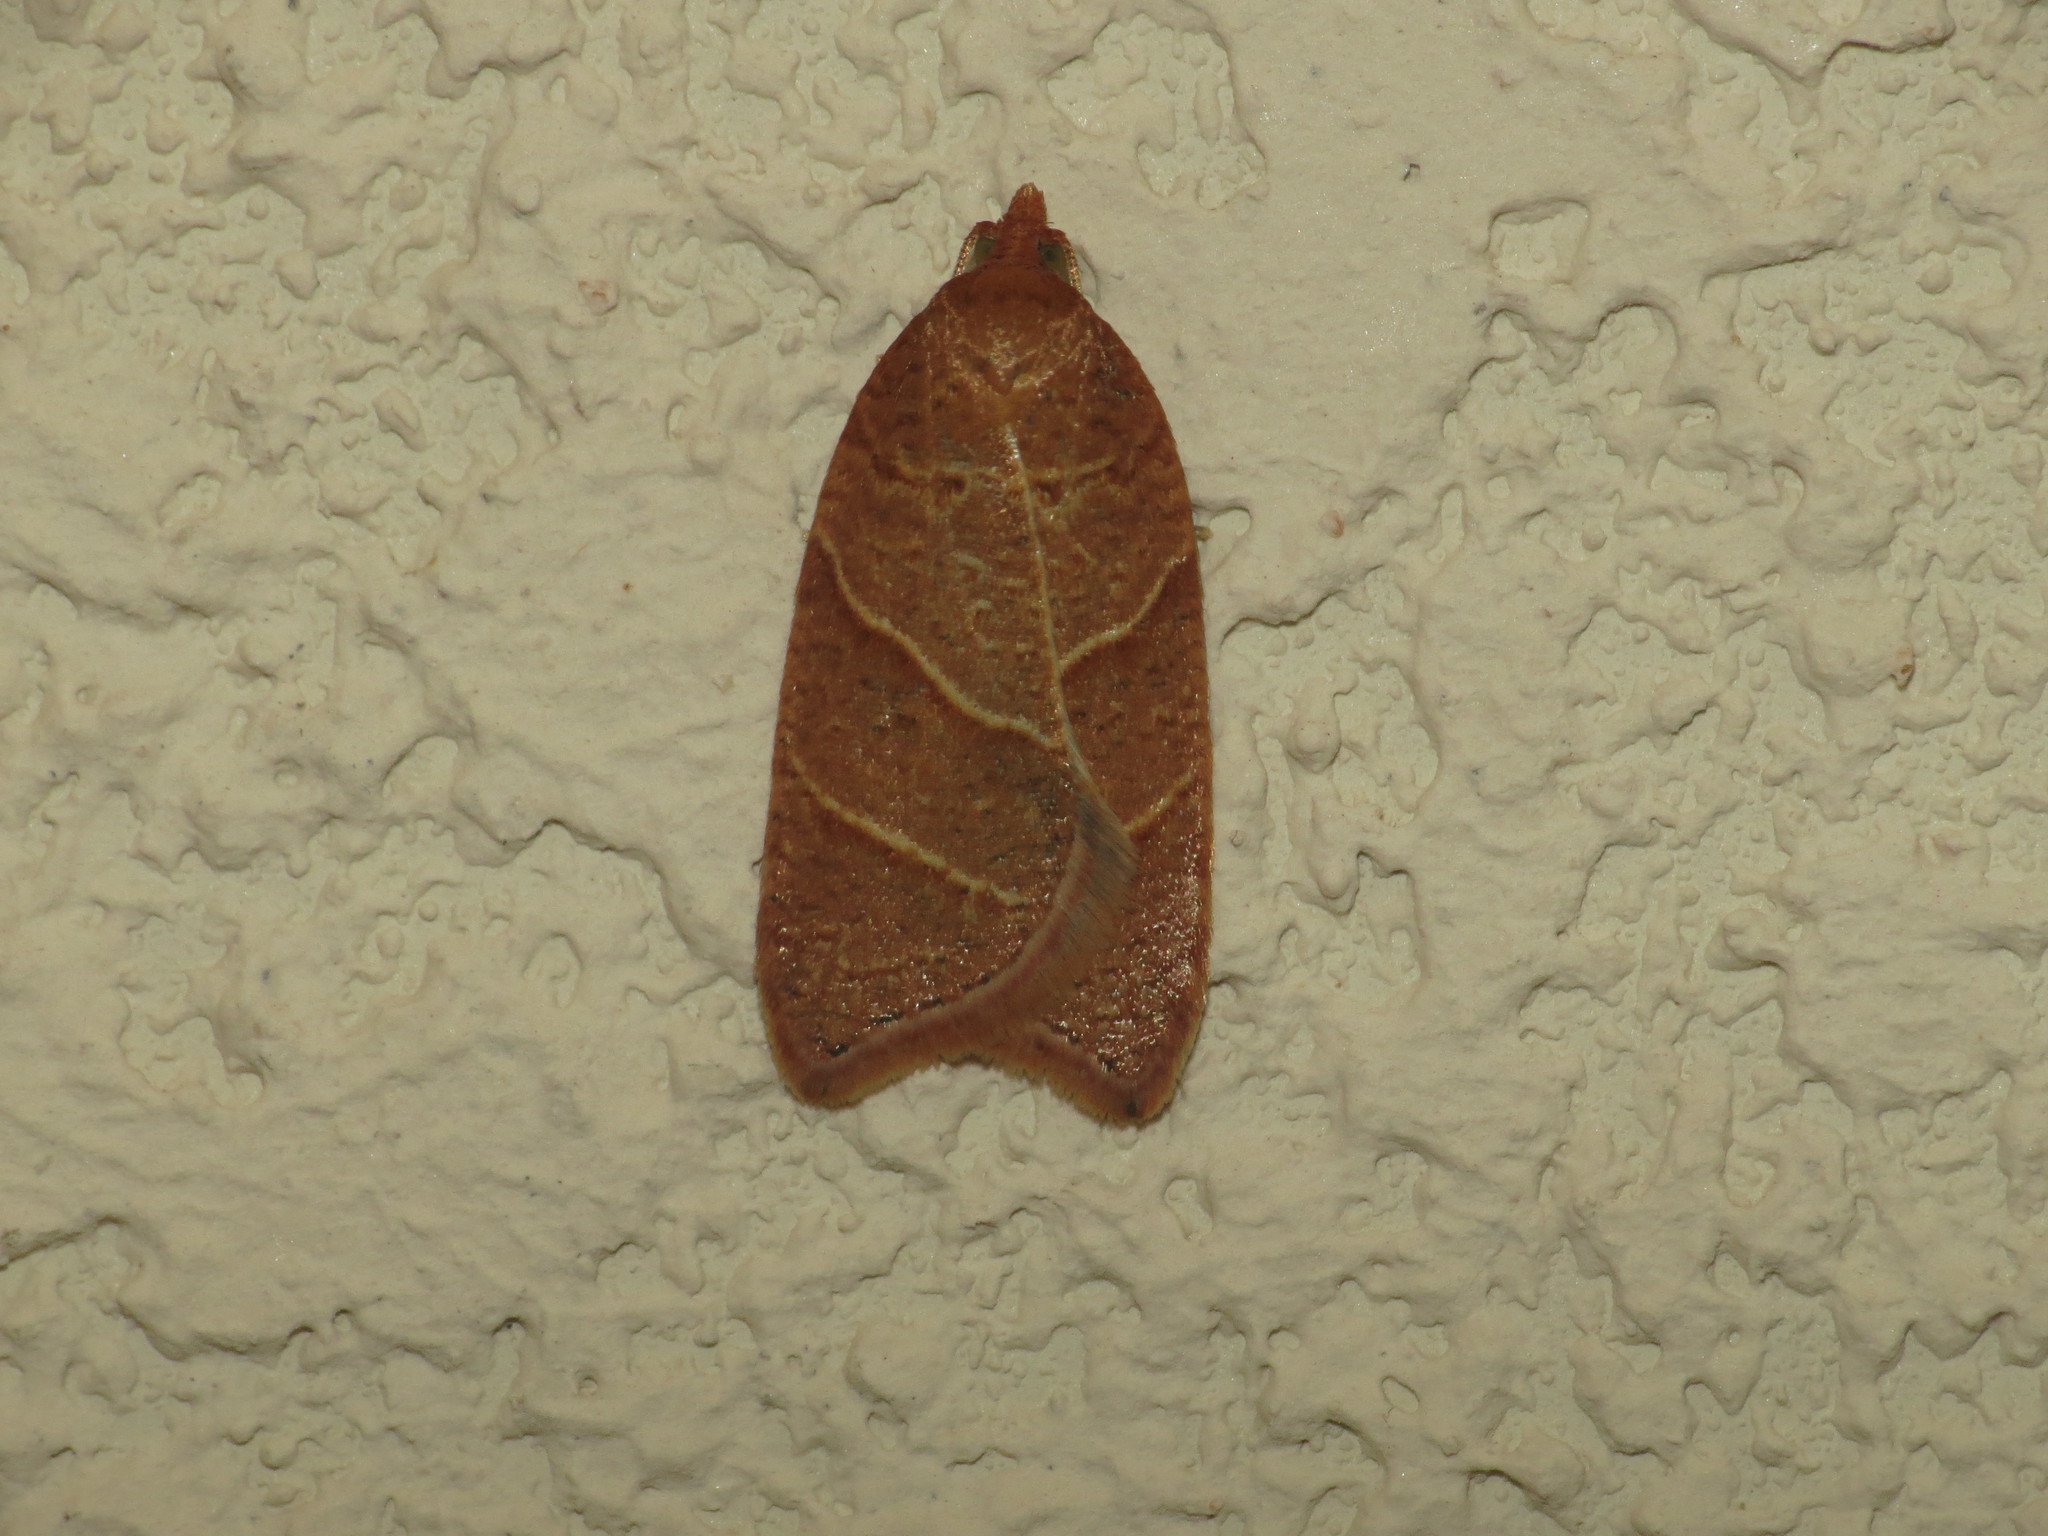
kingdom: Animalia
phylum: Arthropoda
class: Insecta
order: Lepidoptera
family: Tortricidae
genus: Acleris
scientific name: Acleris platynotana
